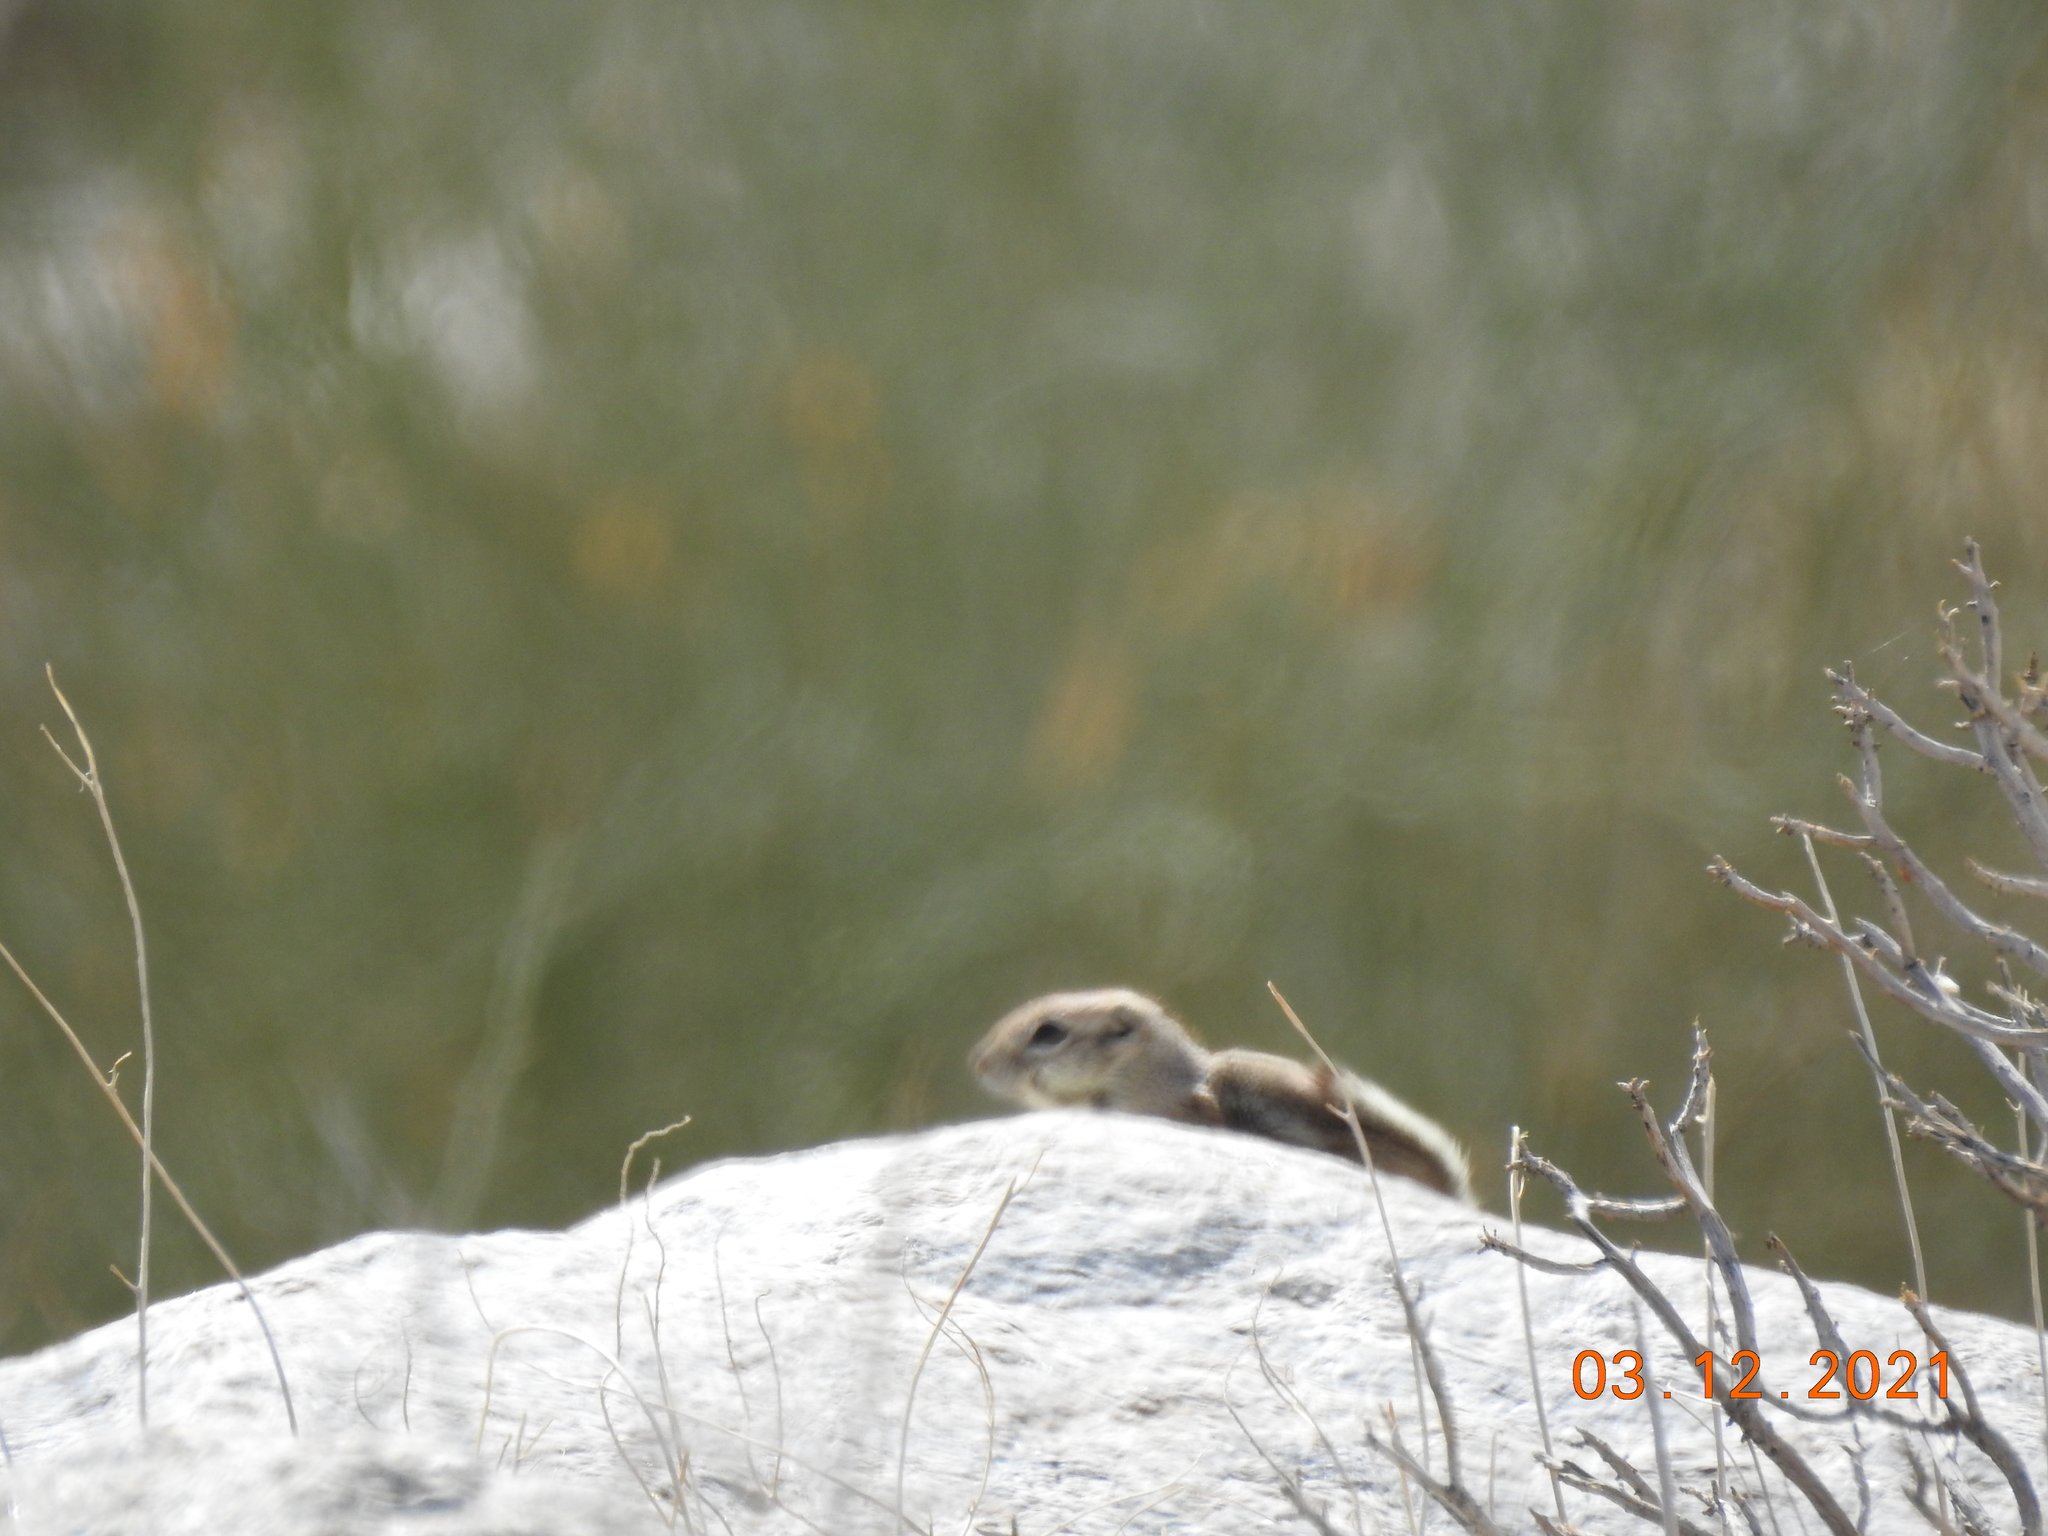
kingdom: Animalia
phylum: Chordata
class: Mammalia
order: Rodentia
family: Sciuridae
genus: Ammospermophilus
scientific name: Ammospermophilus leucurus
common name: White-tailed antelope squirrel
